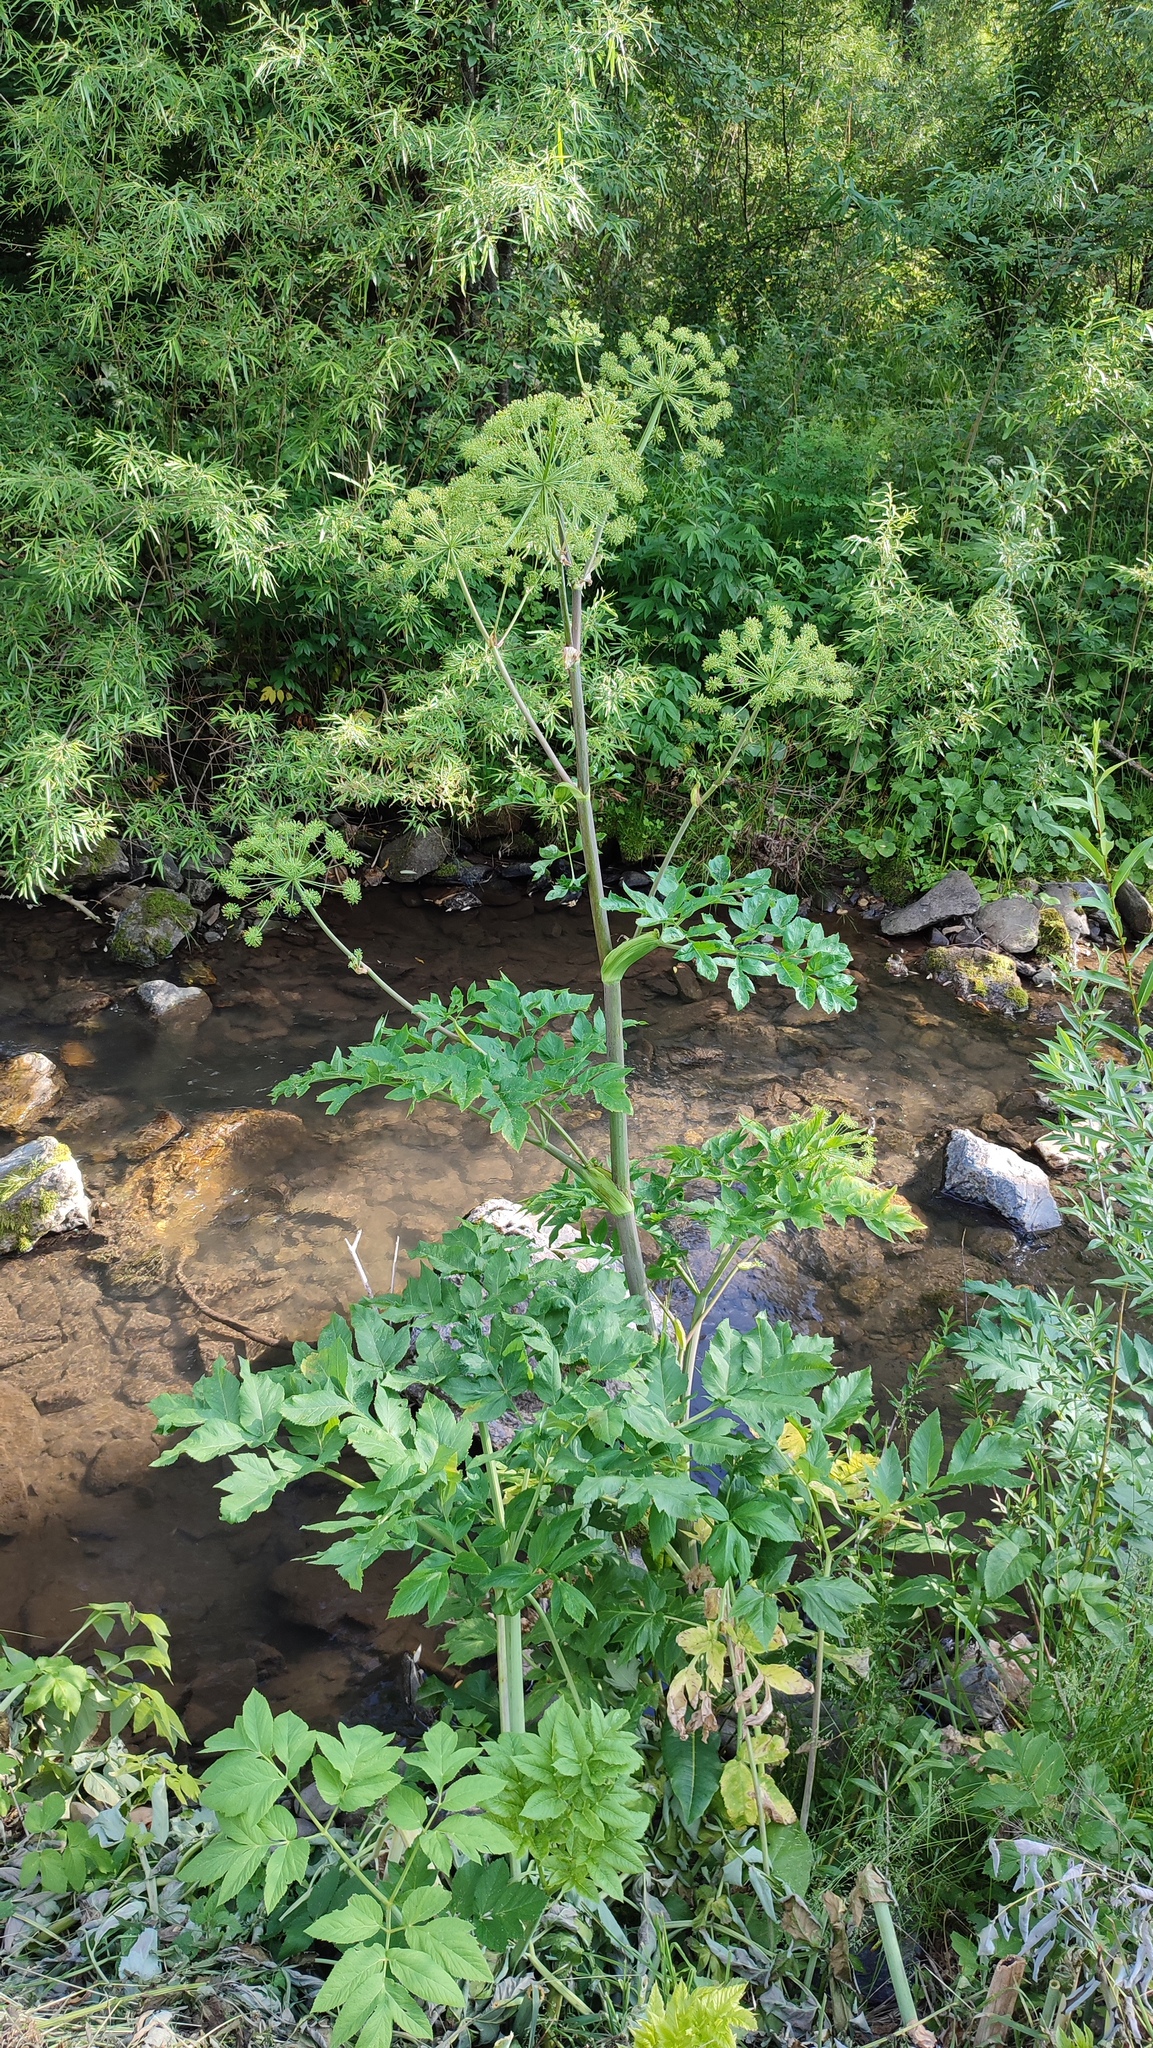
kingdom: Plantae
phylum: Tracheophyta
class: Magnoliopsida
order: Apiales
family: Apiaceae
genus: Angelica
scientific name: Angelica decurrens
